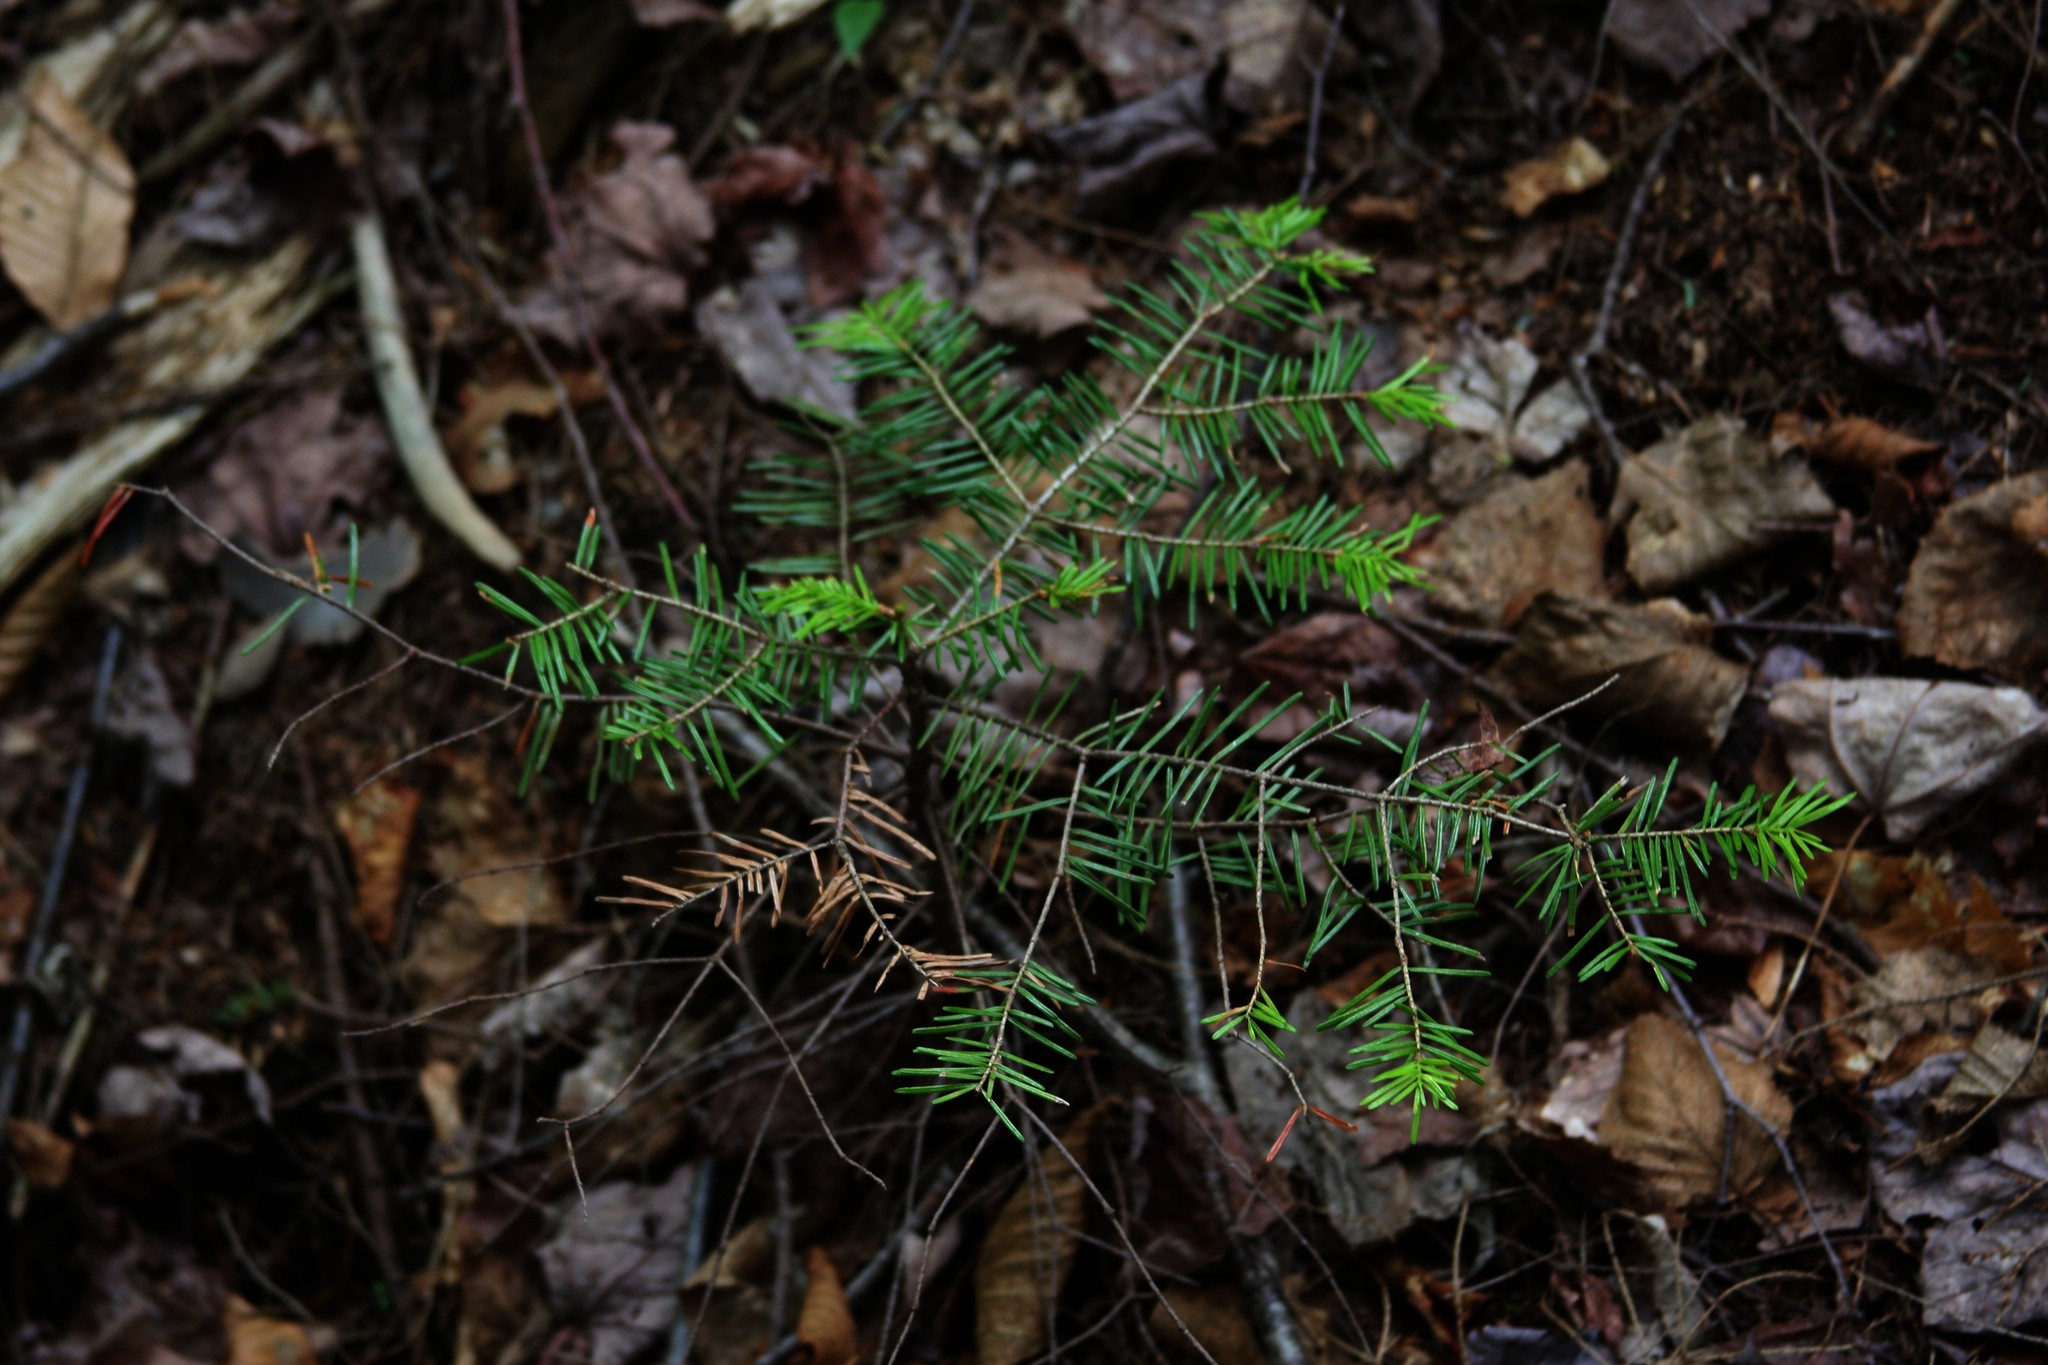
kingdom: Plantae
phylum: Tracheophyta
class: Pinopsida
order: Pinales
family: Pinaceae
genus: Abies
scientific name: Abies balsamea
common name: Balsam fir
